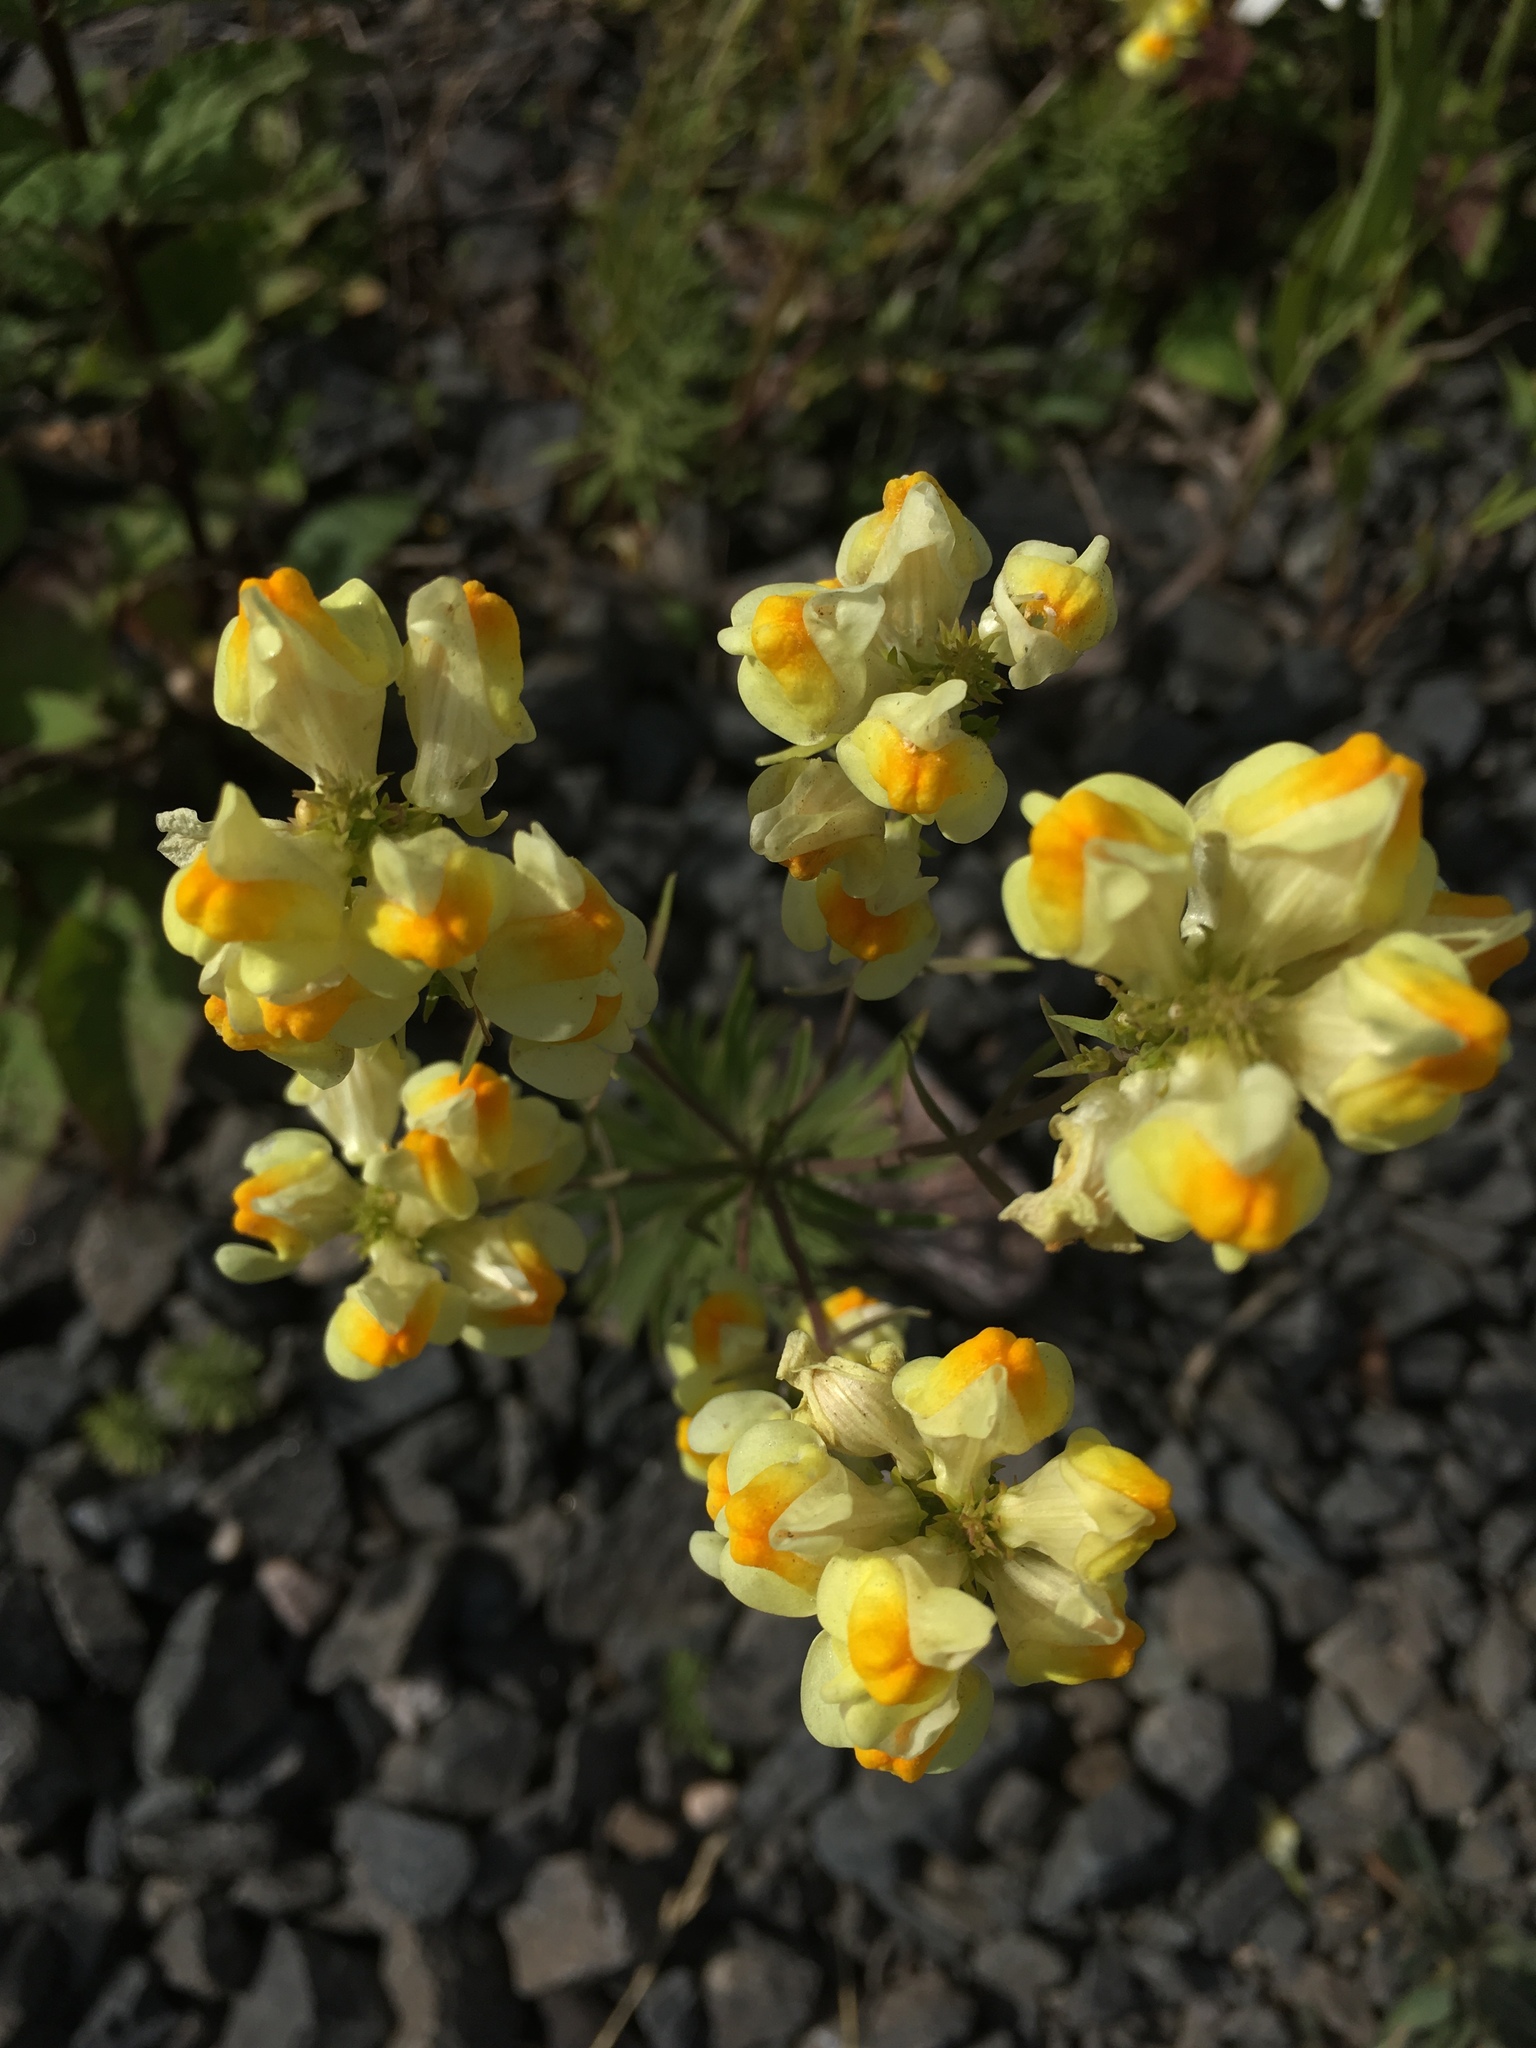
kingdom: Plantae
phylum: Tracheophyta
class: Magnoliopsida
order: Lamiales
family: Plantaginaceae
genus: Linaria
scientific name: Linaria vulgaris
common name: Butter and eggs
